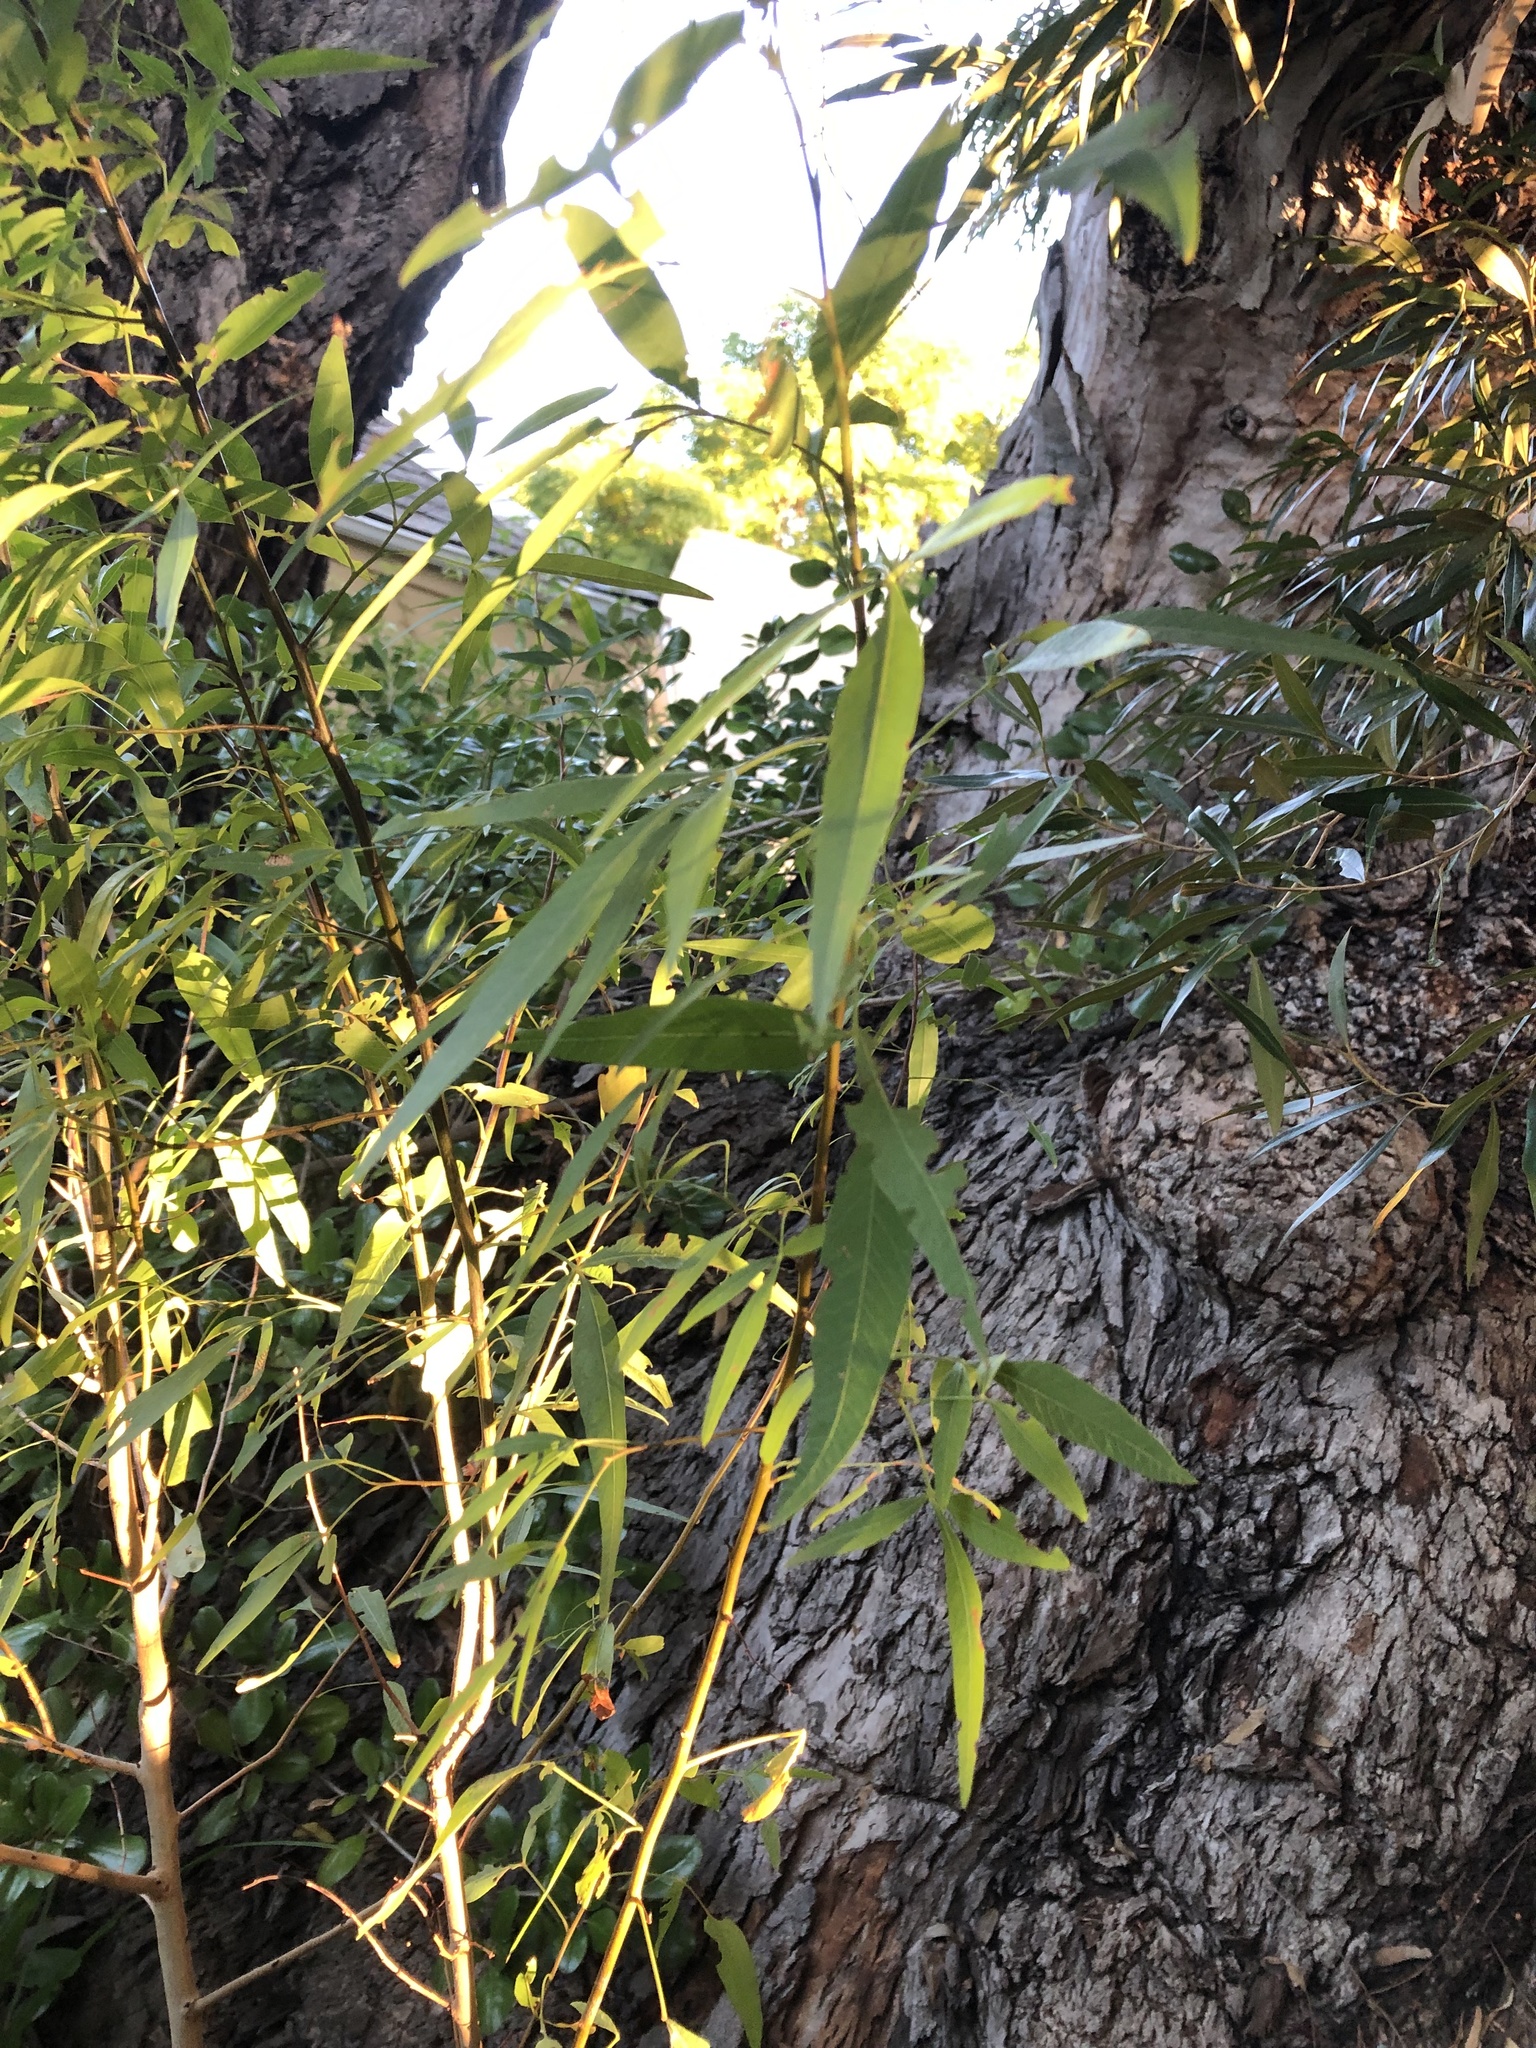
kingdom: Plantae
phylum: Tracheophyta
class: Magnoliopsida
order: Sapindales
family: Anacardiaceae
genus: Searsia
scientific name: Searsia pendulina
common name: White karee
